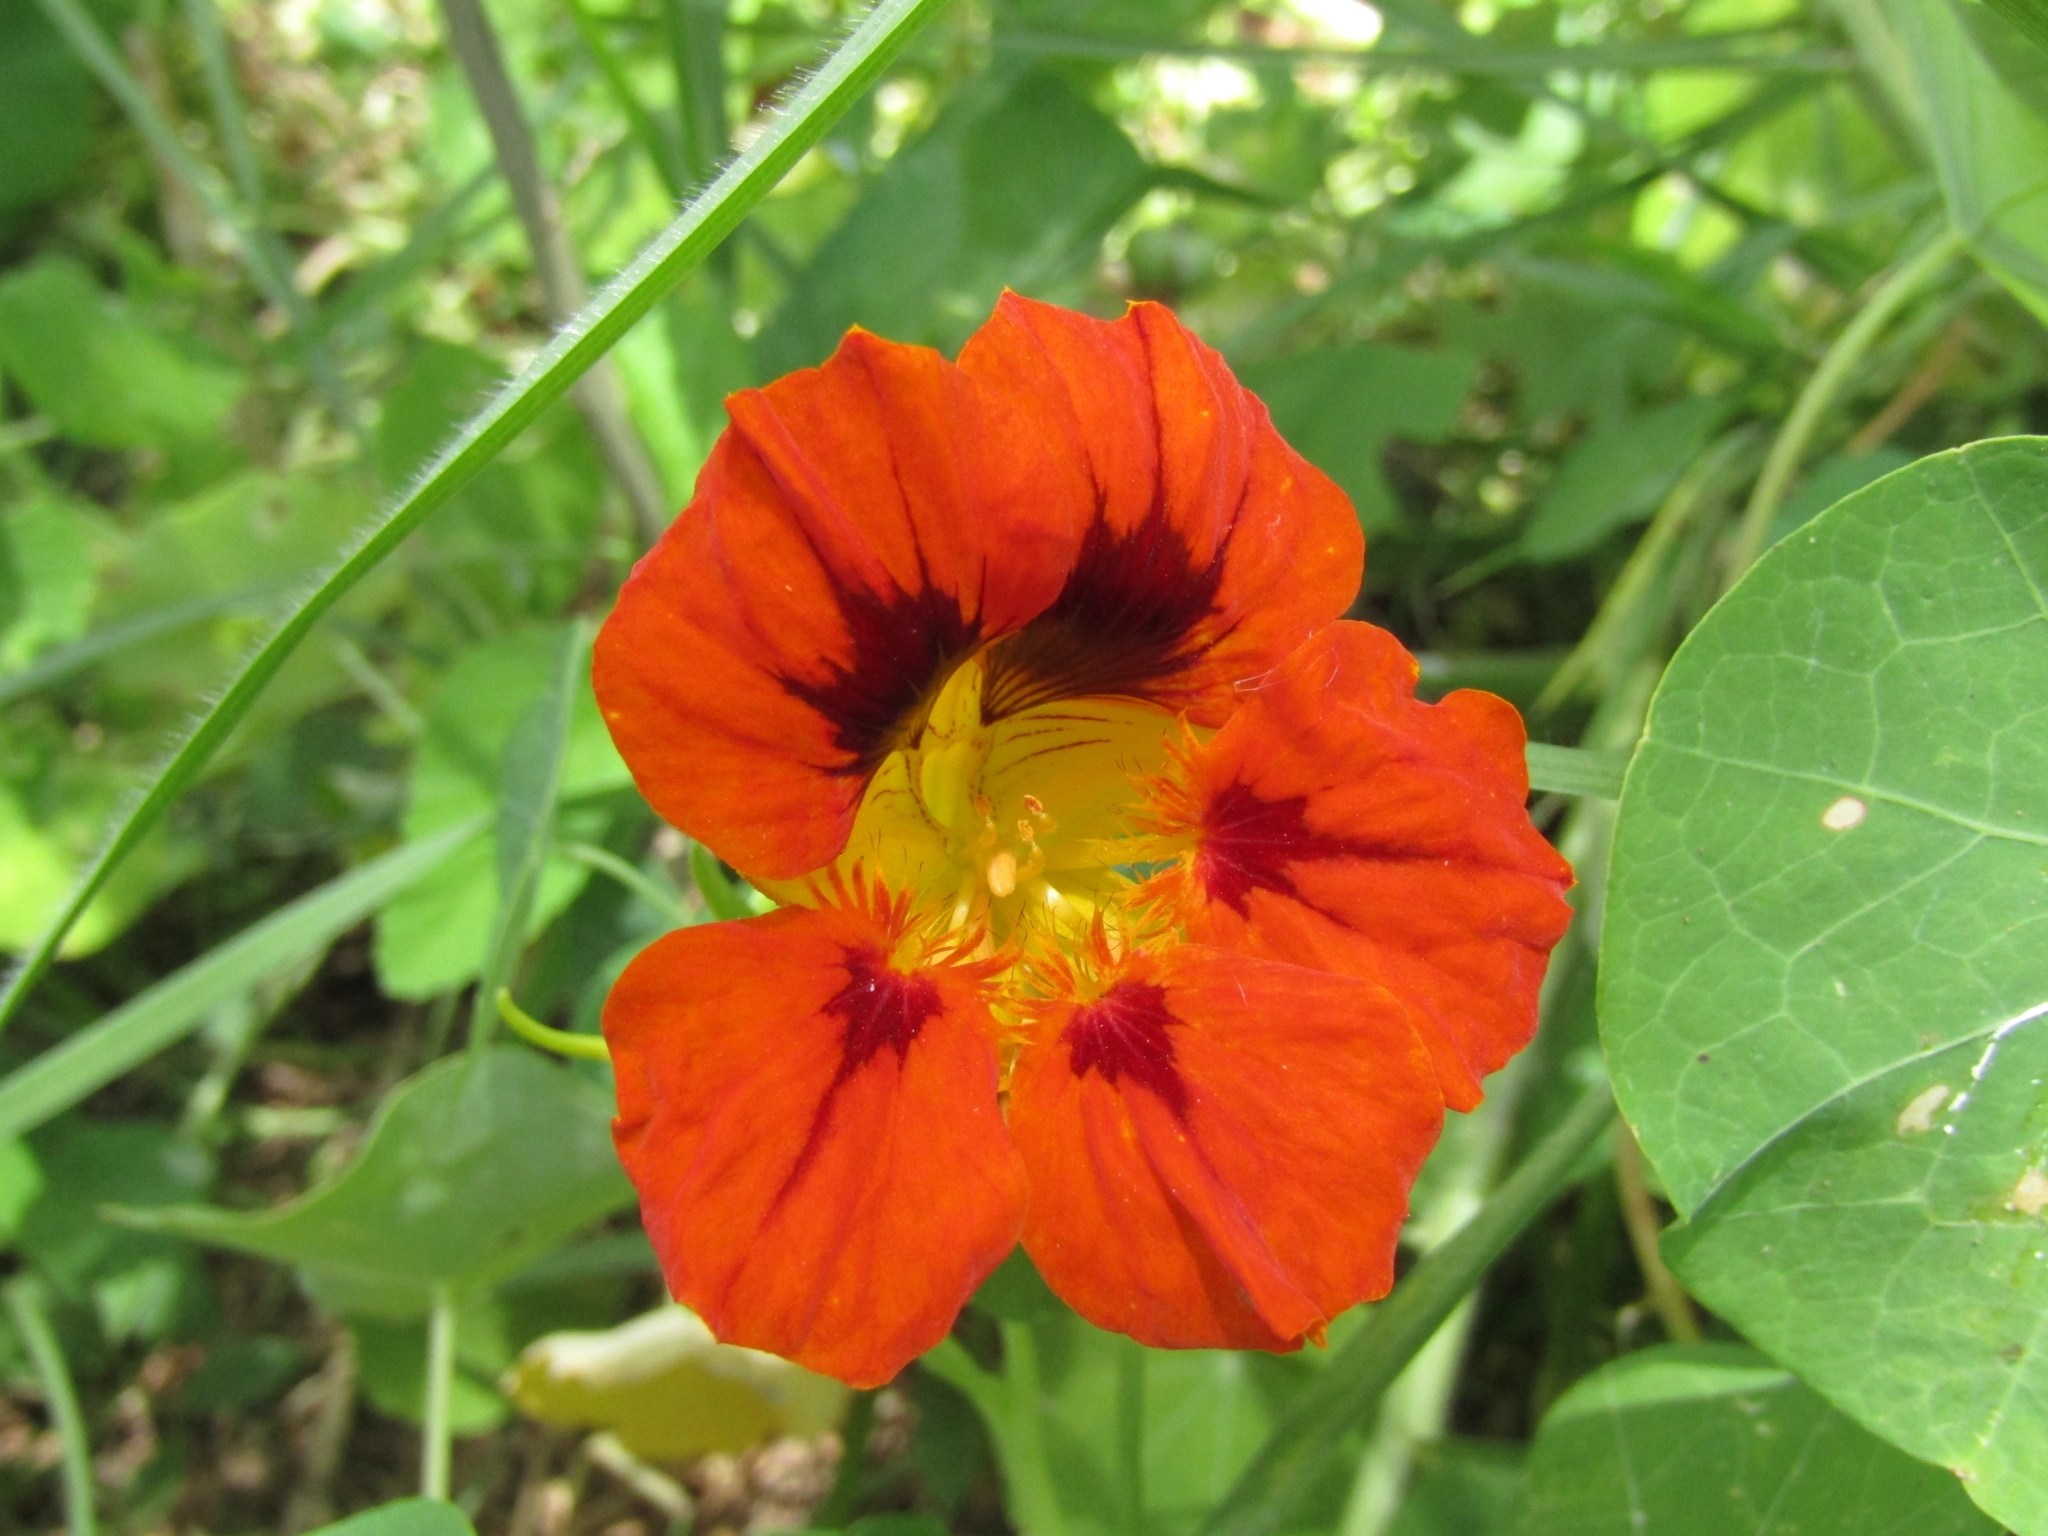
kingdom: Plantae
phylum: Tracheophyta
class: Magnoliopsida
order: Brassicales
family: Tropaeolaceae
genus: Tropaeolum
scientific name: Tropaeolum majus
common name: Nasturtium
